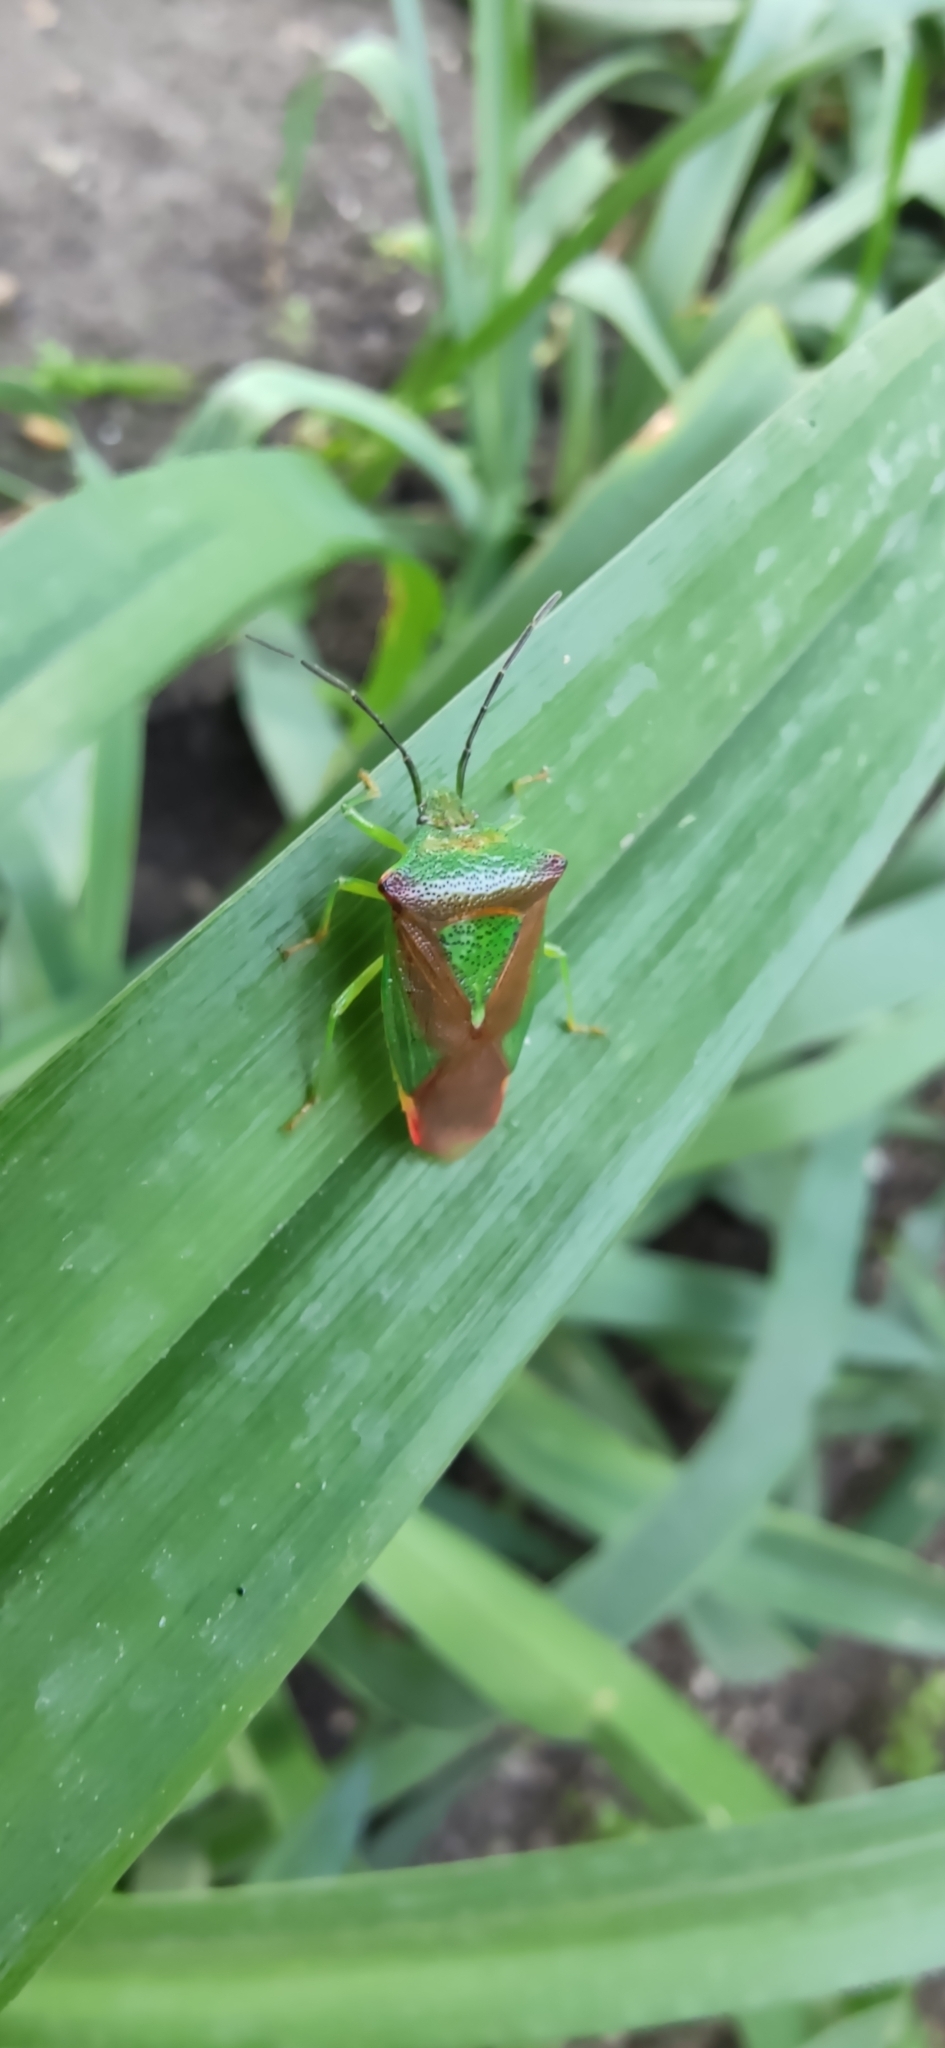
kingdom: Animalia
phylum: Arthropoda
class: Insecta
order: Hemiptera
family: Acanthosomatidae
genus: Acanthosoma
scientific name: Acanthosoma haemorrhoidale
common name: Hawthorn shieldbug
